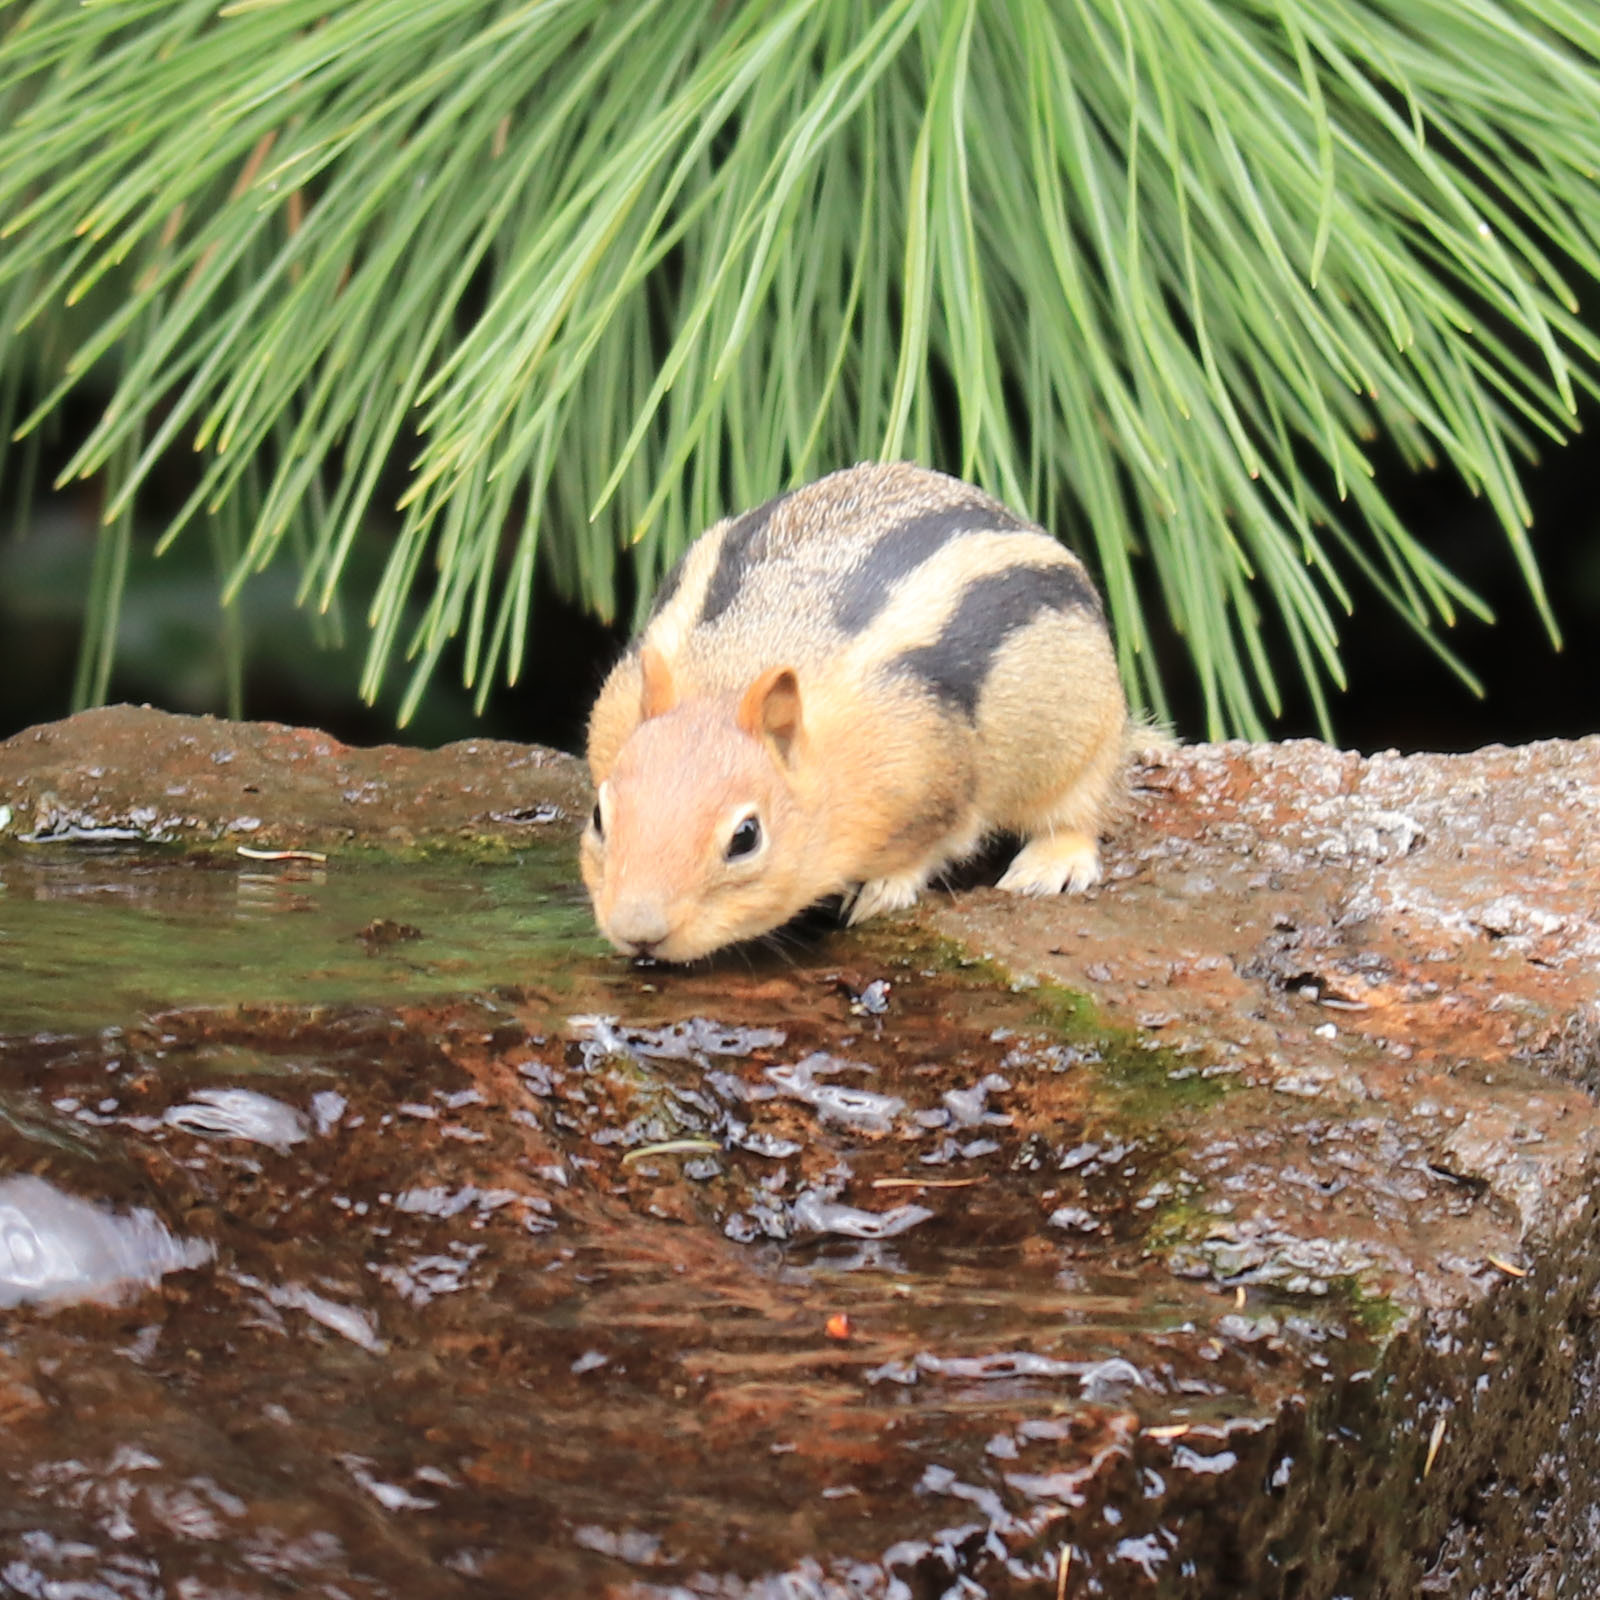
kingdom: Animalia
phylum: Chordata
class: Mammalia
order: Rodentia
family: Sciuridae
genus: Callospermophilus
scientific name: Callospermophilus lateralis
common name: Golden-mantled ground squirrel
